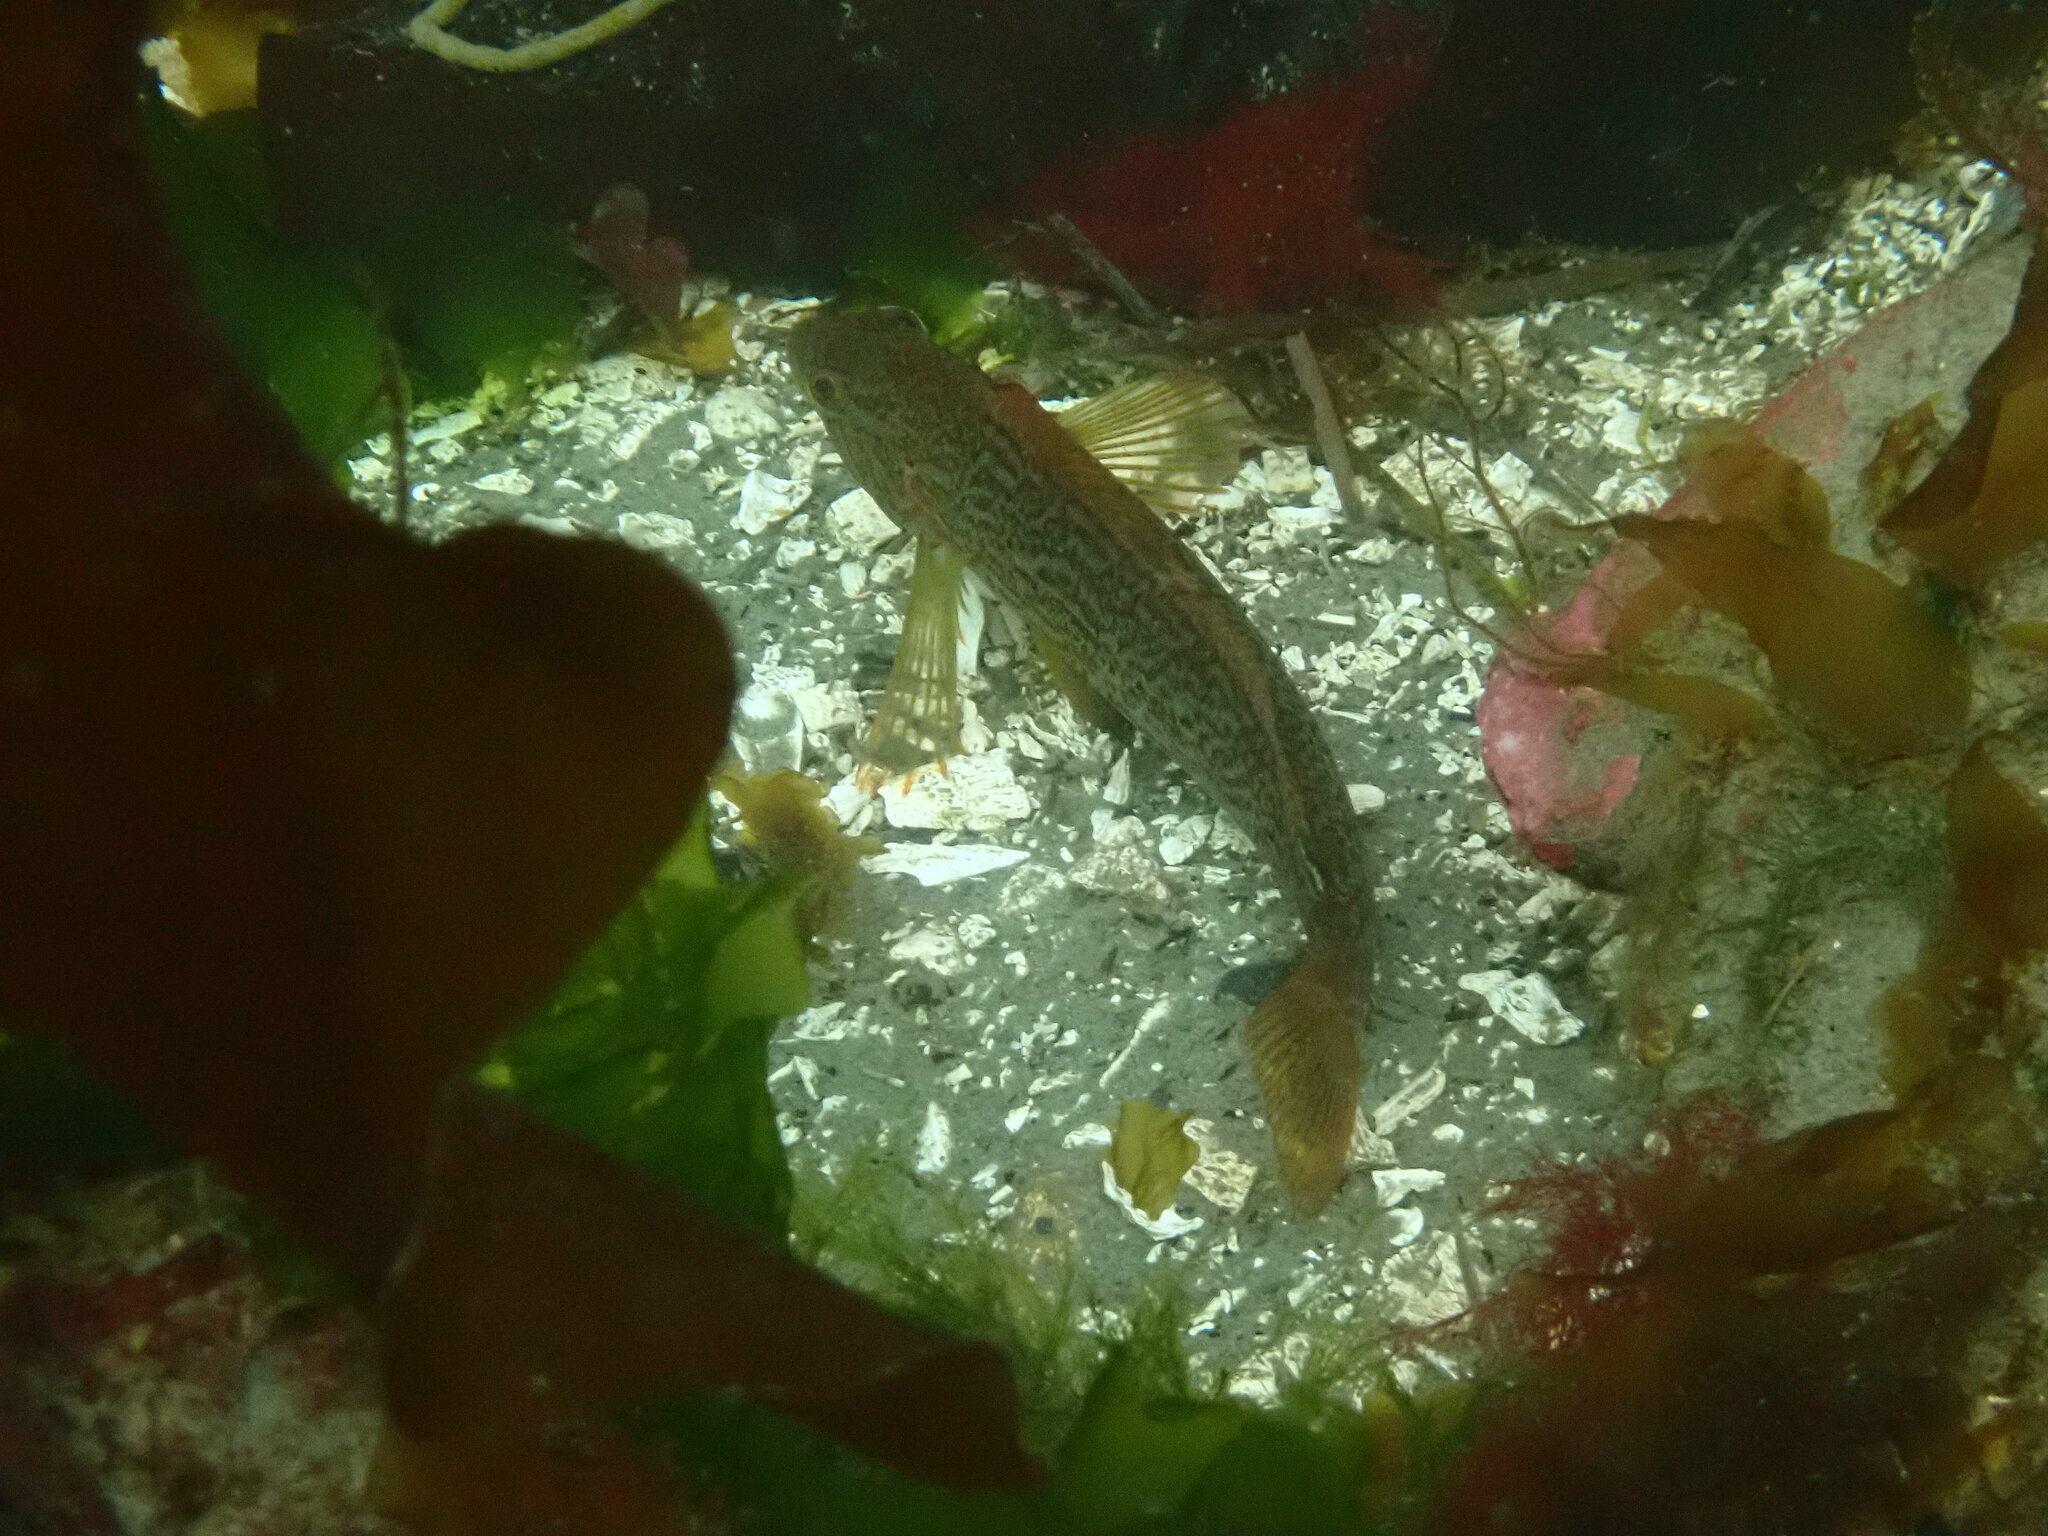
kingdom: Animalia
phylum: Chordata
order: Scorpaeniformes
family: Hexagrammidae
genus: Hexagrammos
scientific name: Hexagrammos decagrammus
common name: Kelp greenling
